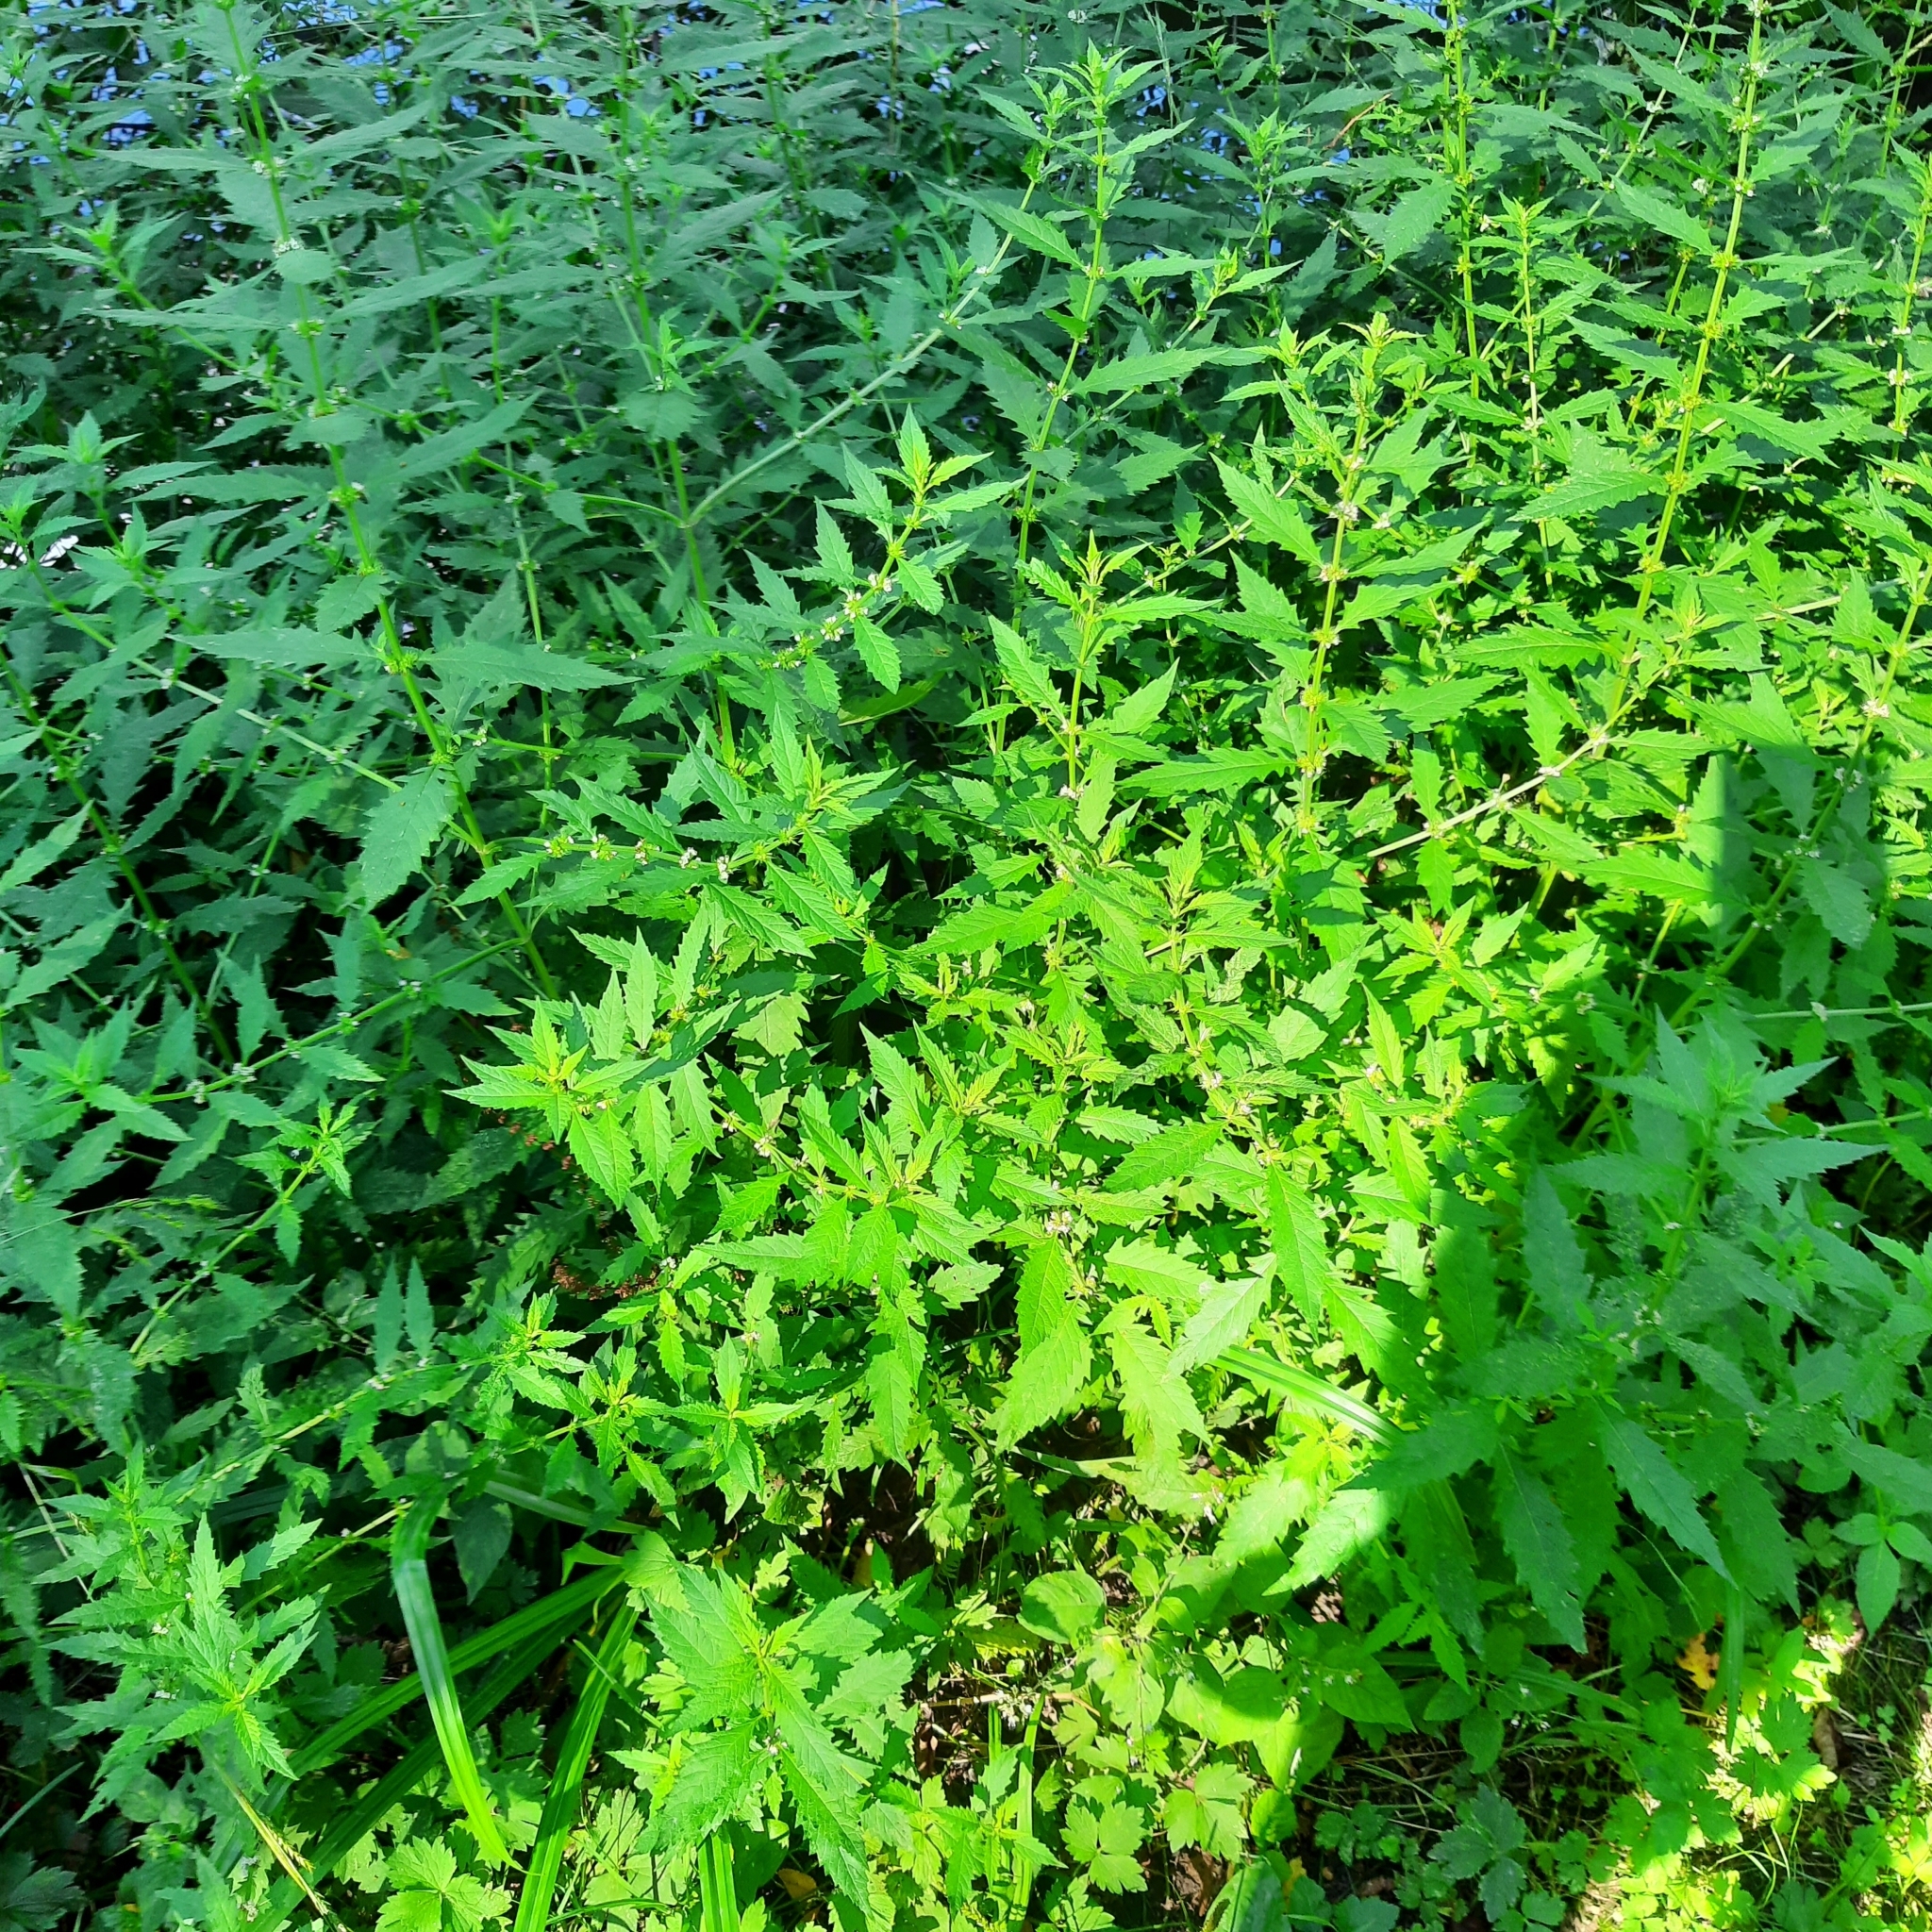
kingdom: Plantae
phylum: Tracheophyta
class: Magnoliopsida
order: Lamiales
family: Lamiaceae
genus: Lycopus
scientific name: Lycopus europaeus
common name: European bugleweed
